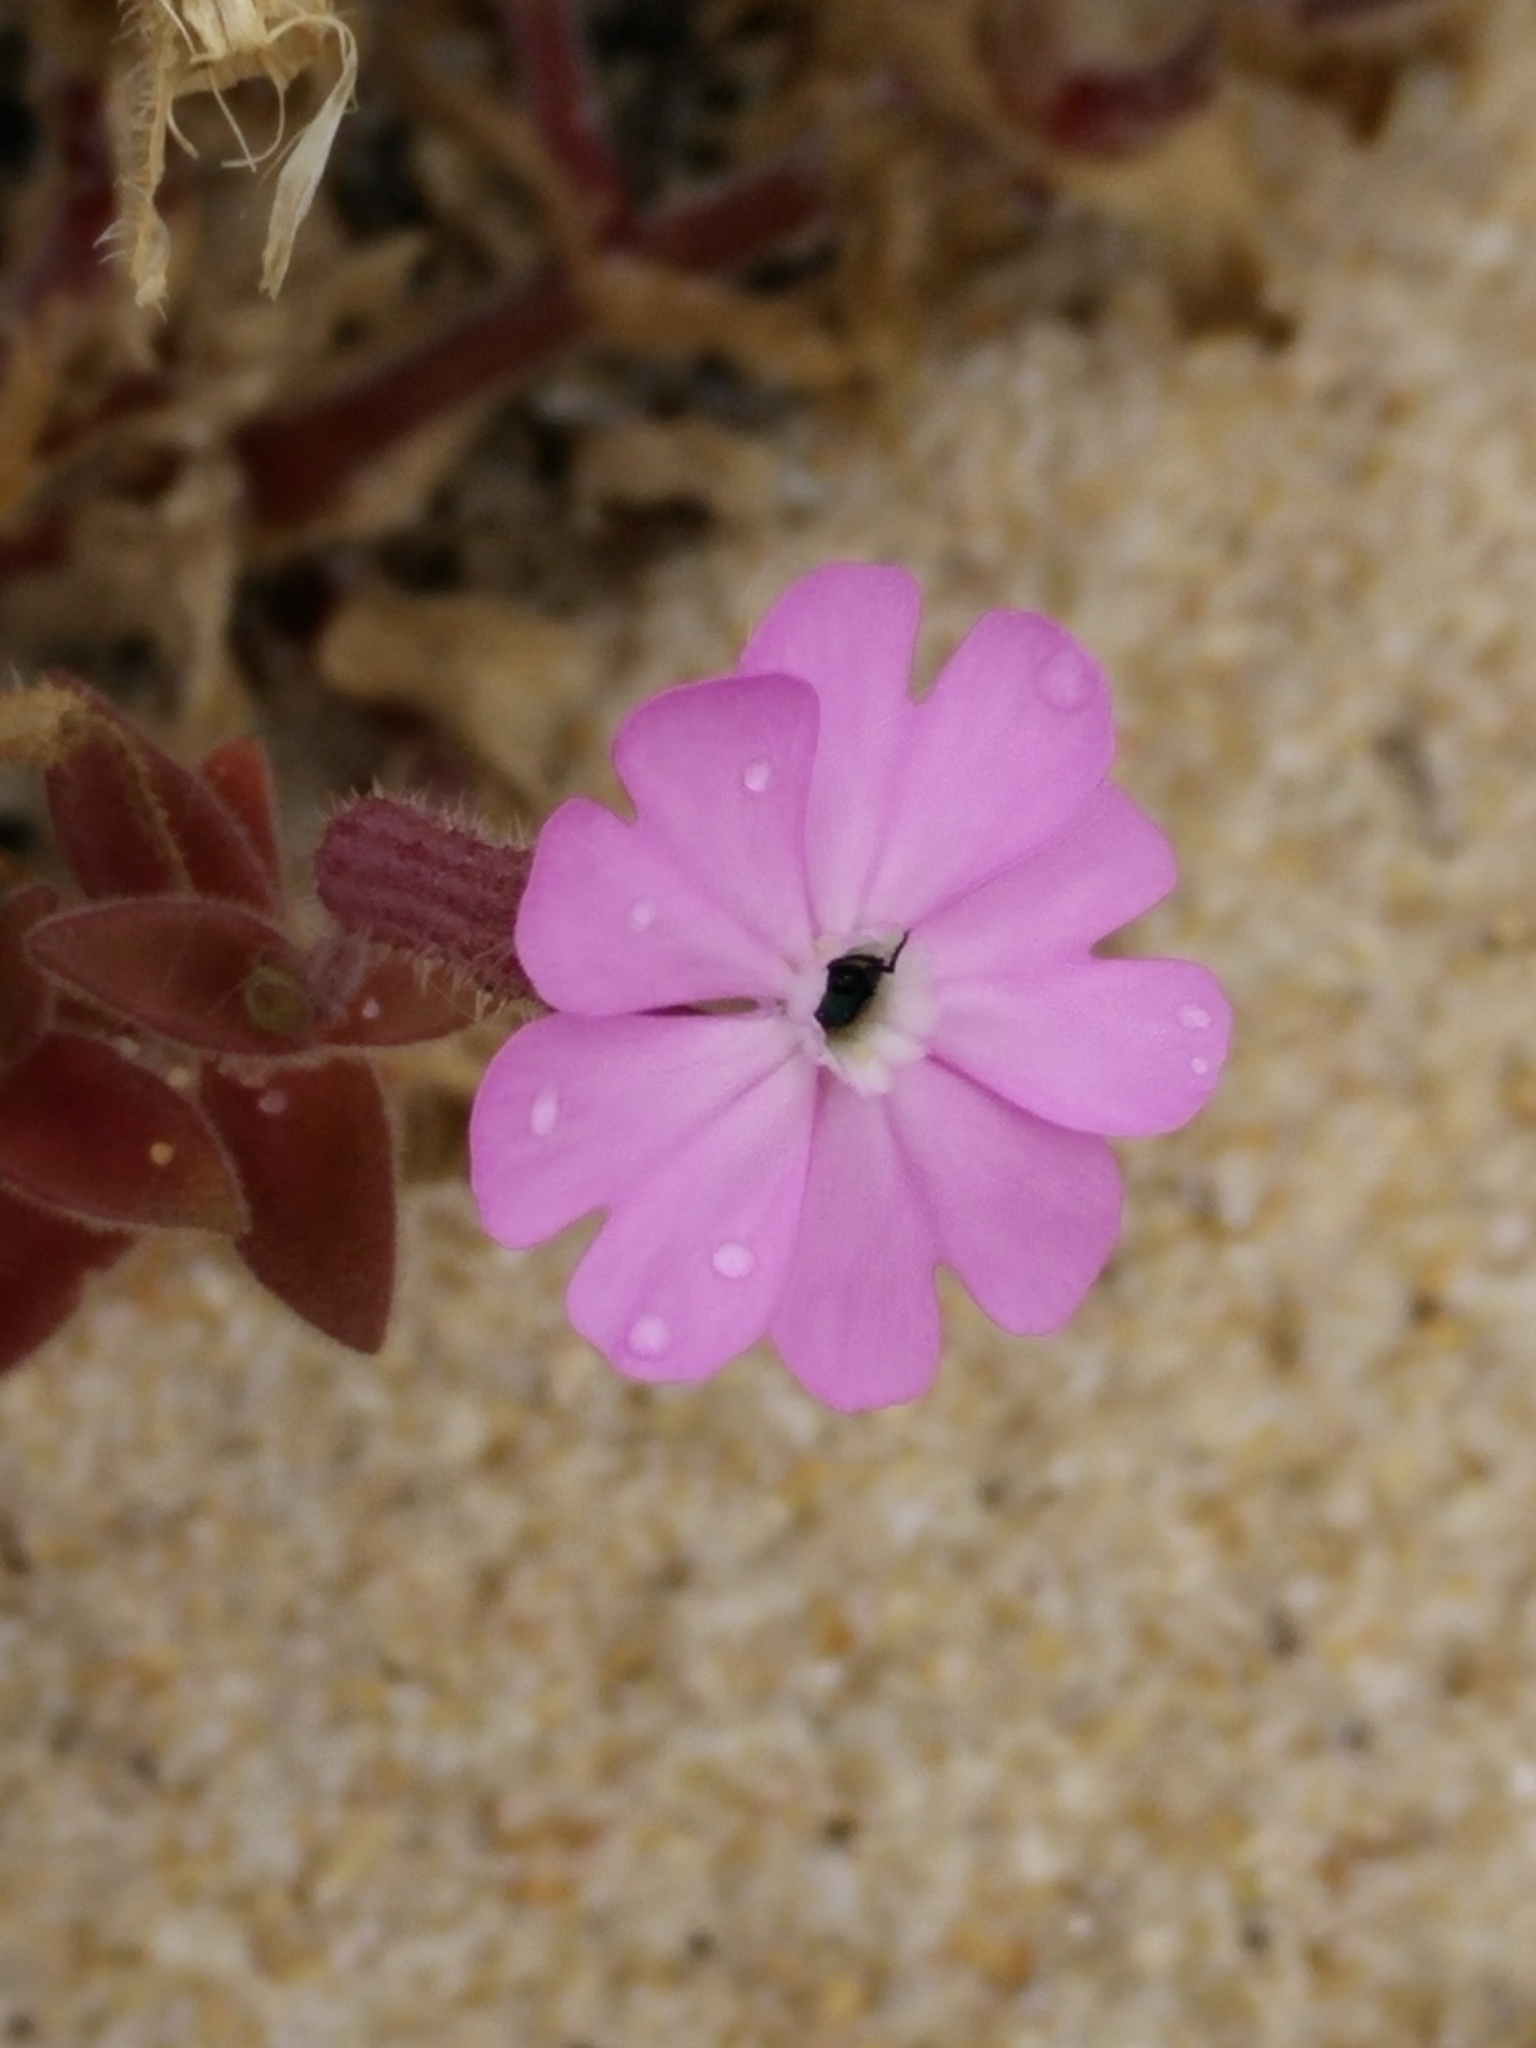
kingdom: Plantae
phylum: Tracheophyta
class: Magnoliopsida
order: Caryophyllales
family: Caryophyllaceae
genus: Silene
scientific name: Silene littorea
